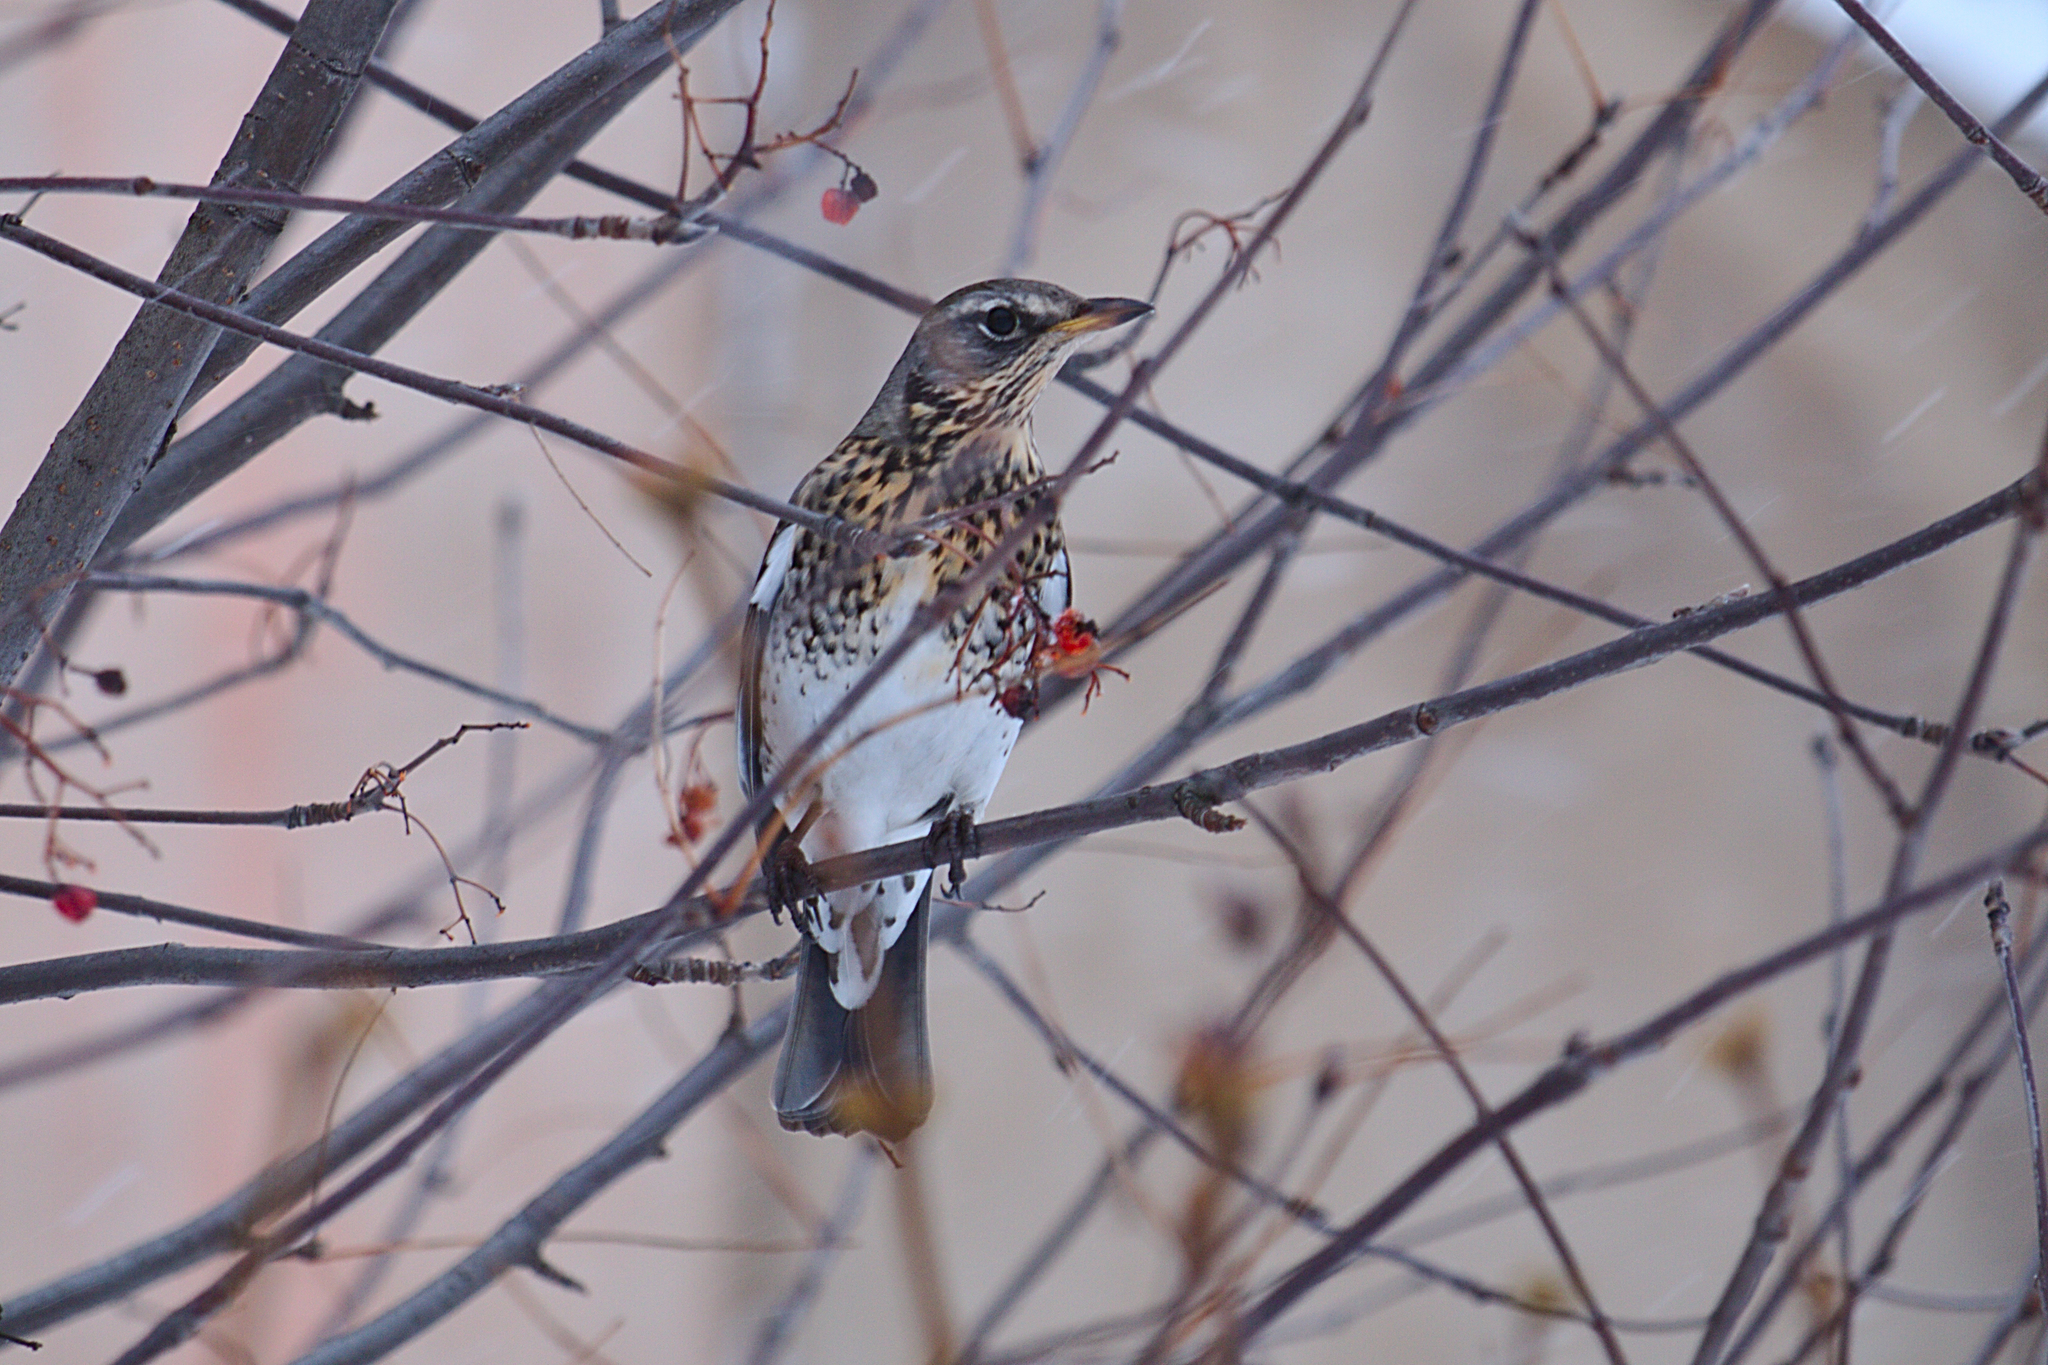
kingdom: Animalia
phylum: Chordata
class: Aves
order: Passeriformes
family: Turdidae
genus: Turdus
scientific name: Turdus pilaris
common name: Fieldfare
